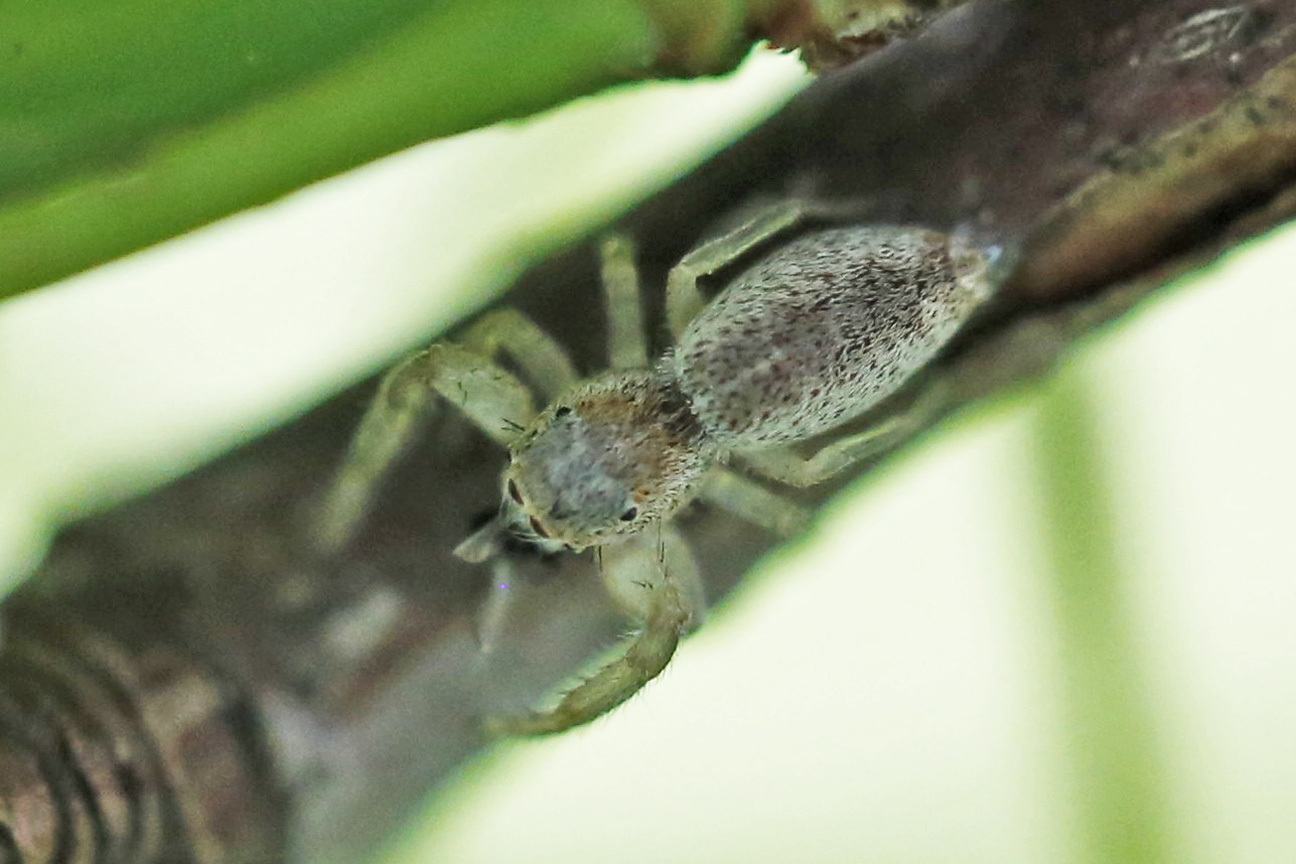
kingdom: Animalia
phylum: Arthropoda
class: Arachnida
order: Araneae
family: Salticidae
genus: Hentzia
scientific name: Hentzia mitrata
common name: White-jawed jumping spider
